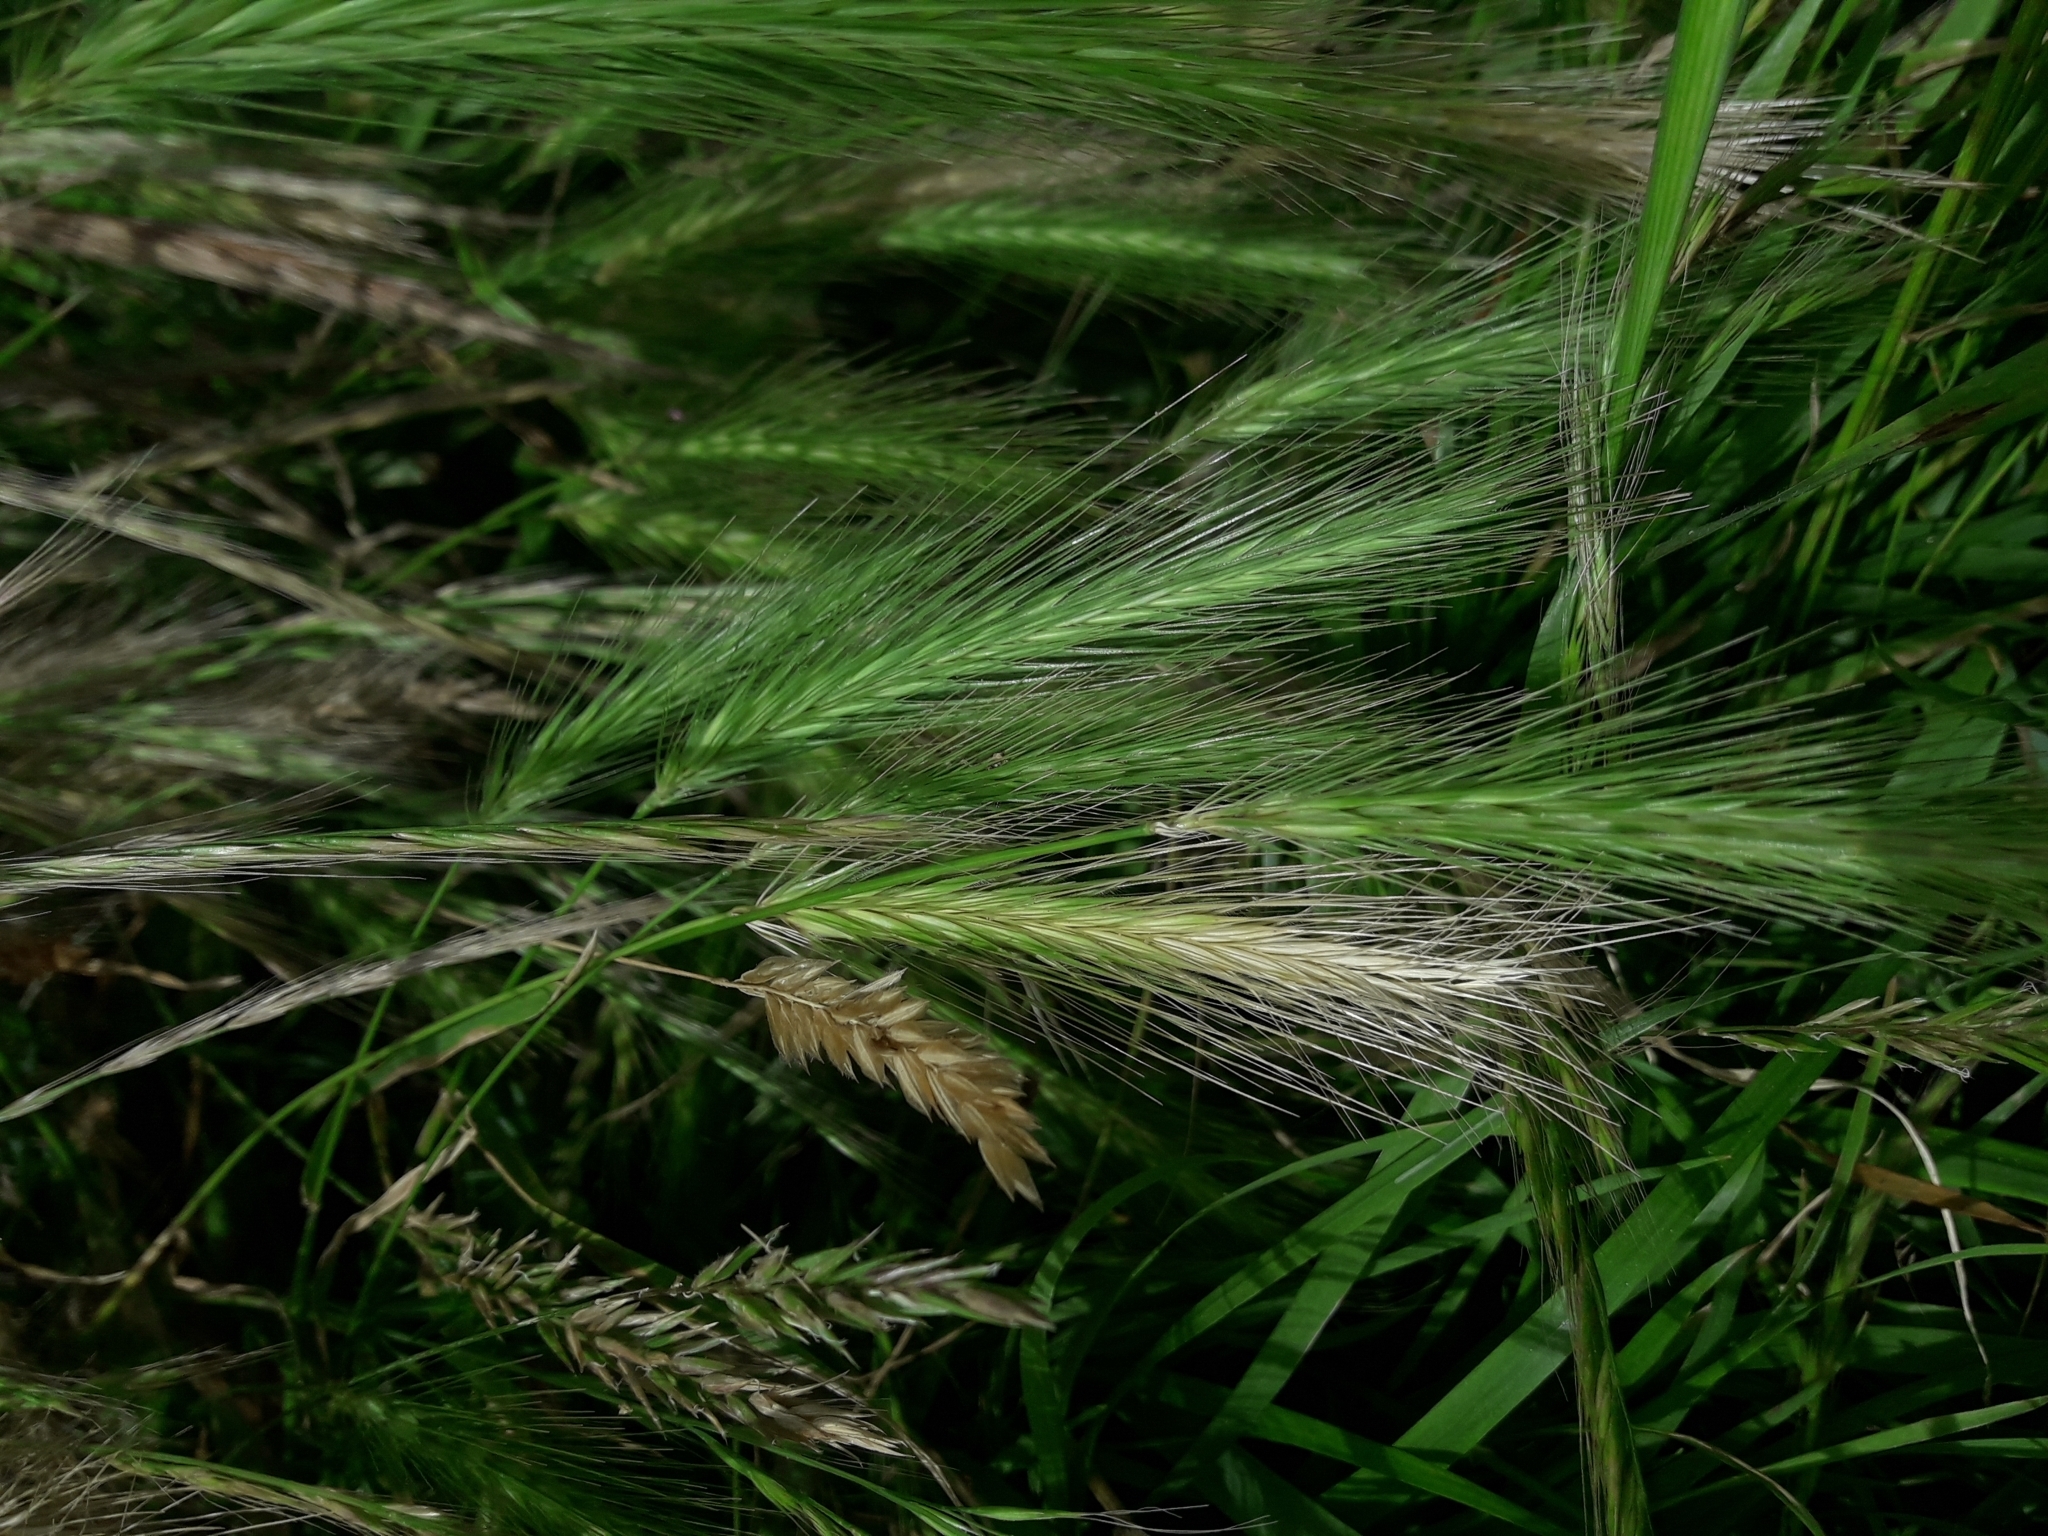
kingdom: Plantae
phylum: Tracheophyta
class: Liliopsida
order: Poales
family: Poaceae
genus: Hordeum
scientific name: Hordeum murinum
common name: Wall barley
